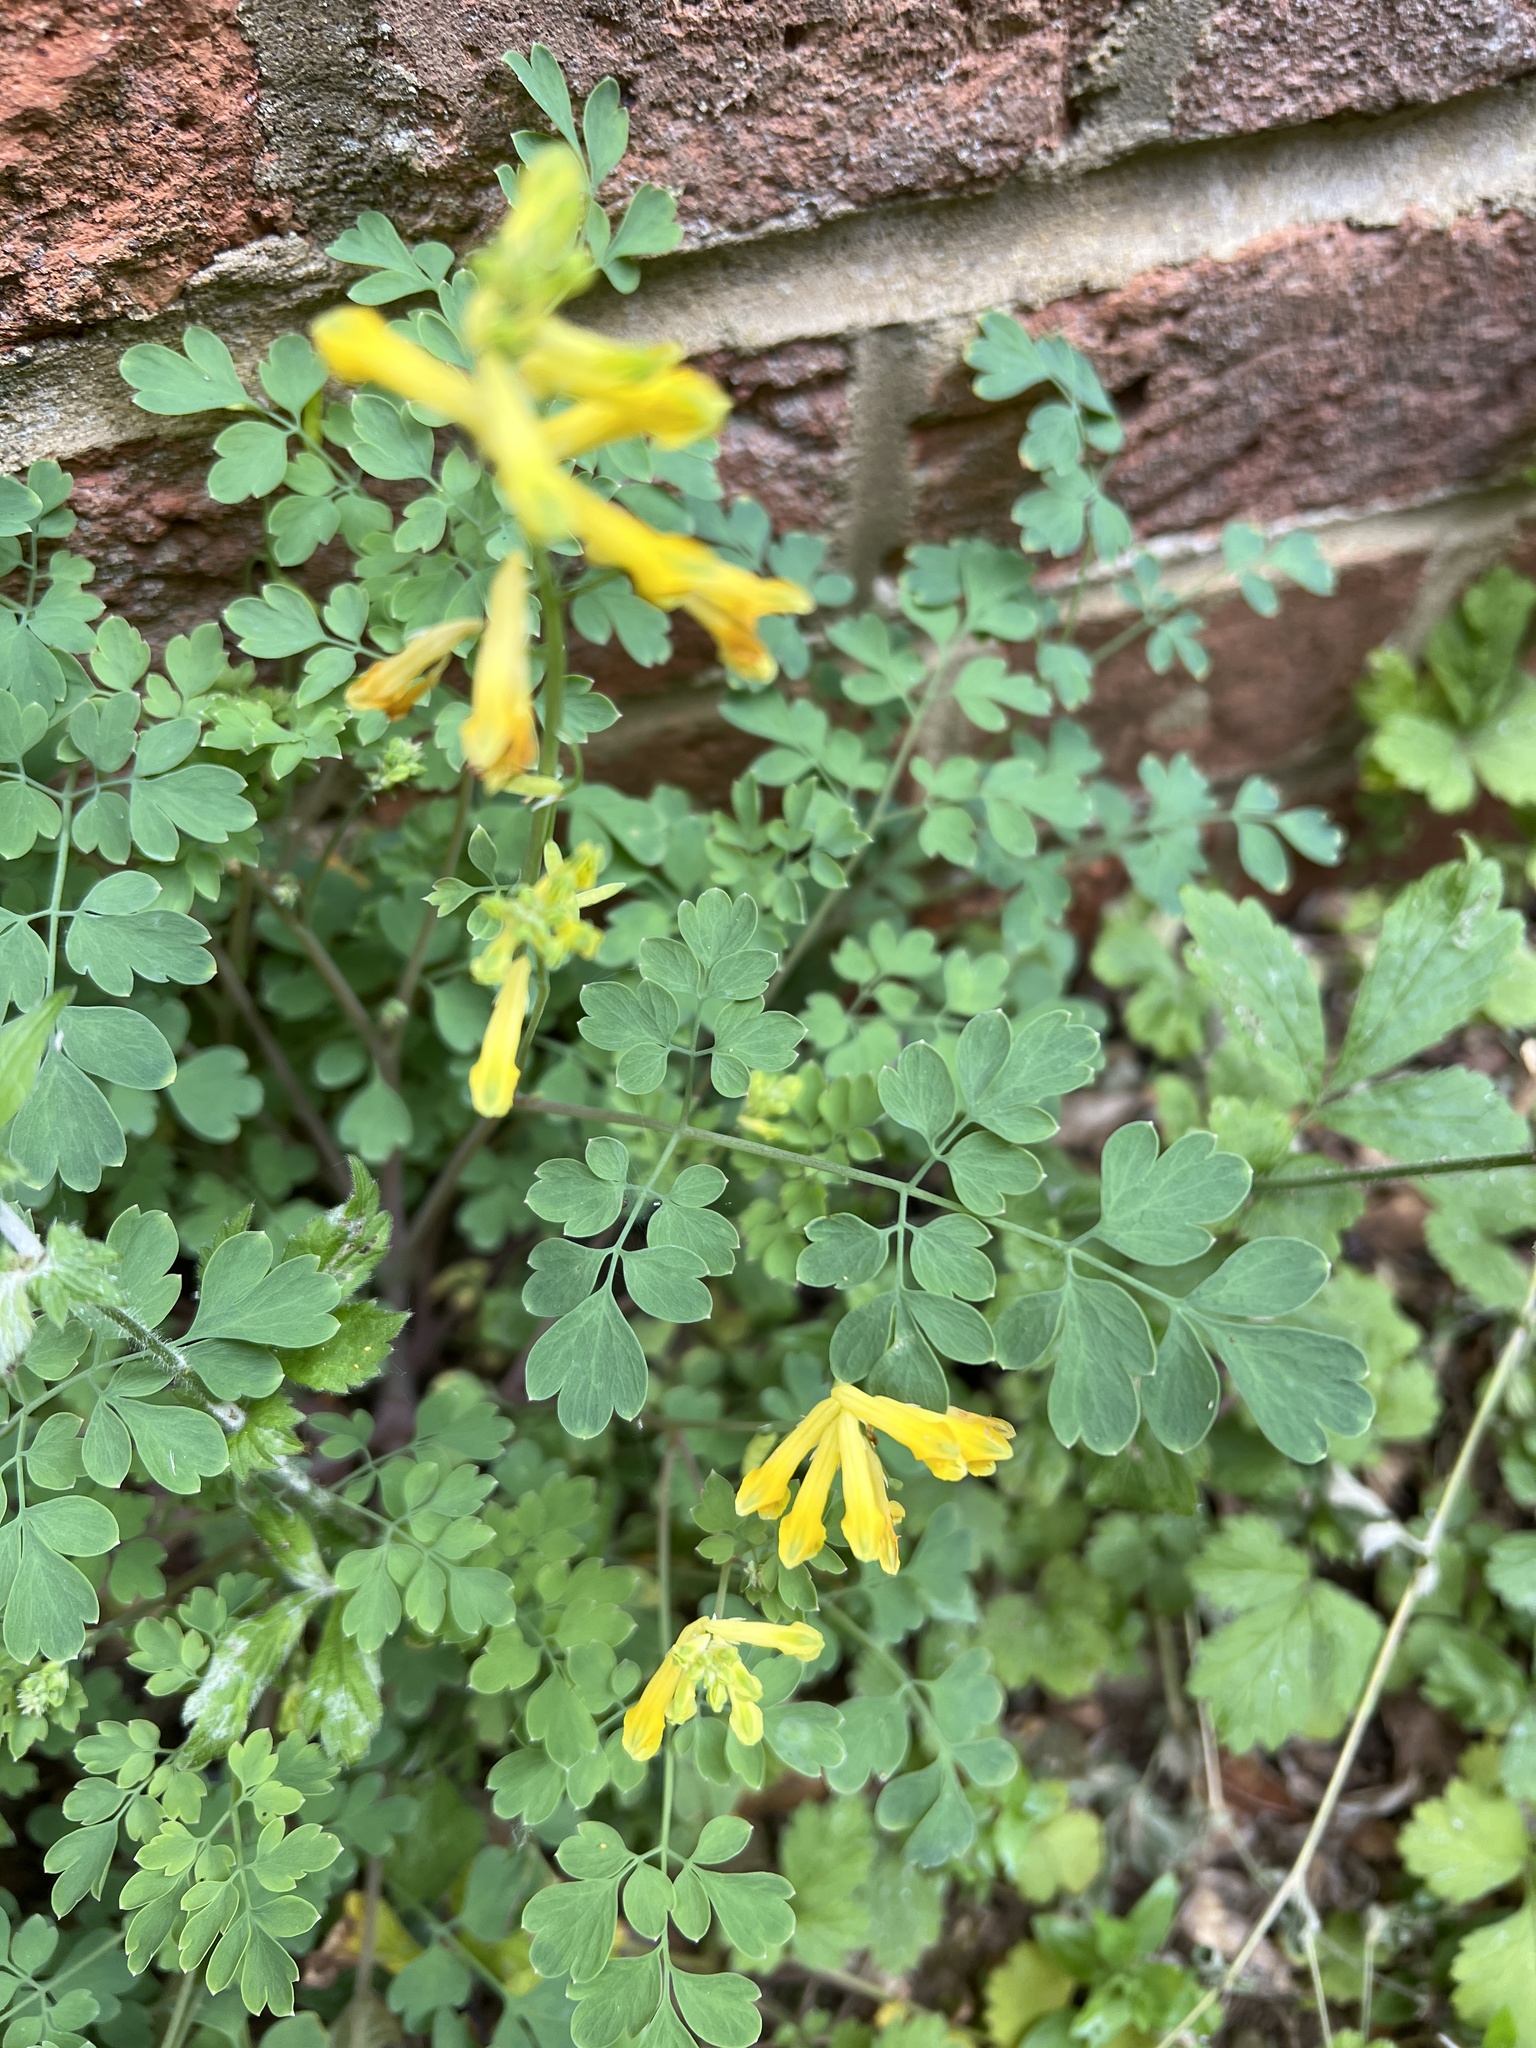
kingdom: Plantae
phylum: Tracheophyta
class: Magnoliopsida
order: Ranunculales
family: Papaveraceae
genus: Pseudofumaria
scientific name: Pseudofumaria lutea
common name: Yellow corydalis
